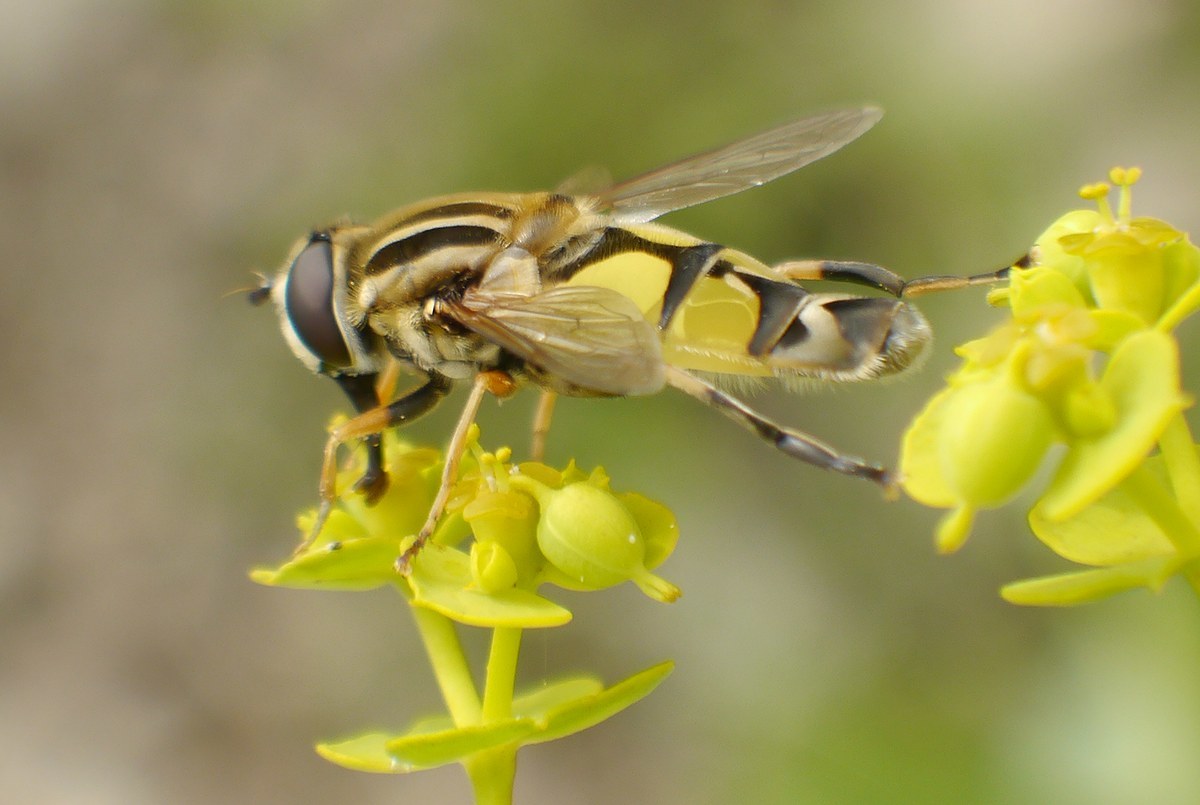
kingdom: Animalia
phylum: Arthropoda
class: Insecta
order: Diptera
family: Syrphidae
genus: Helophilus
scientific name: Helophilus trivittatus
